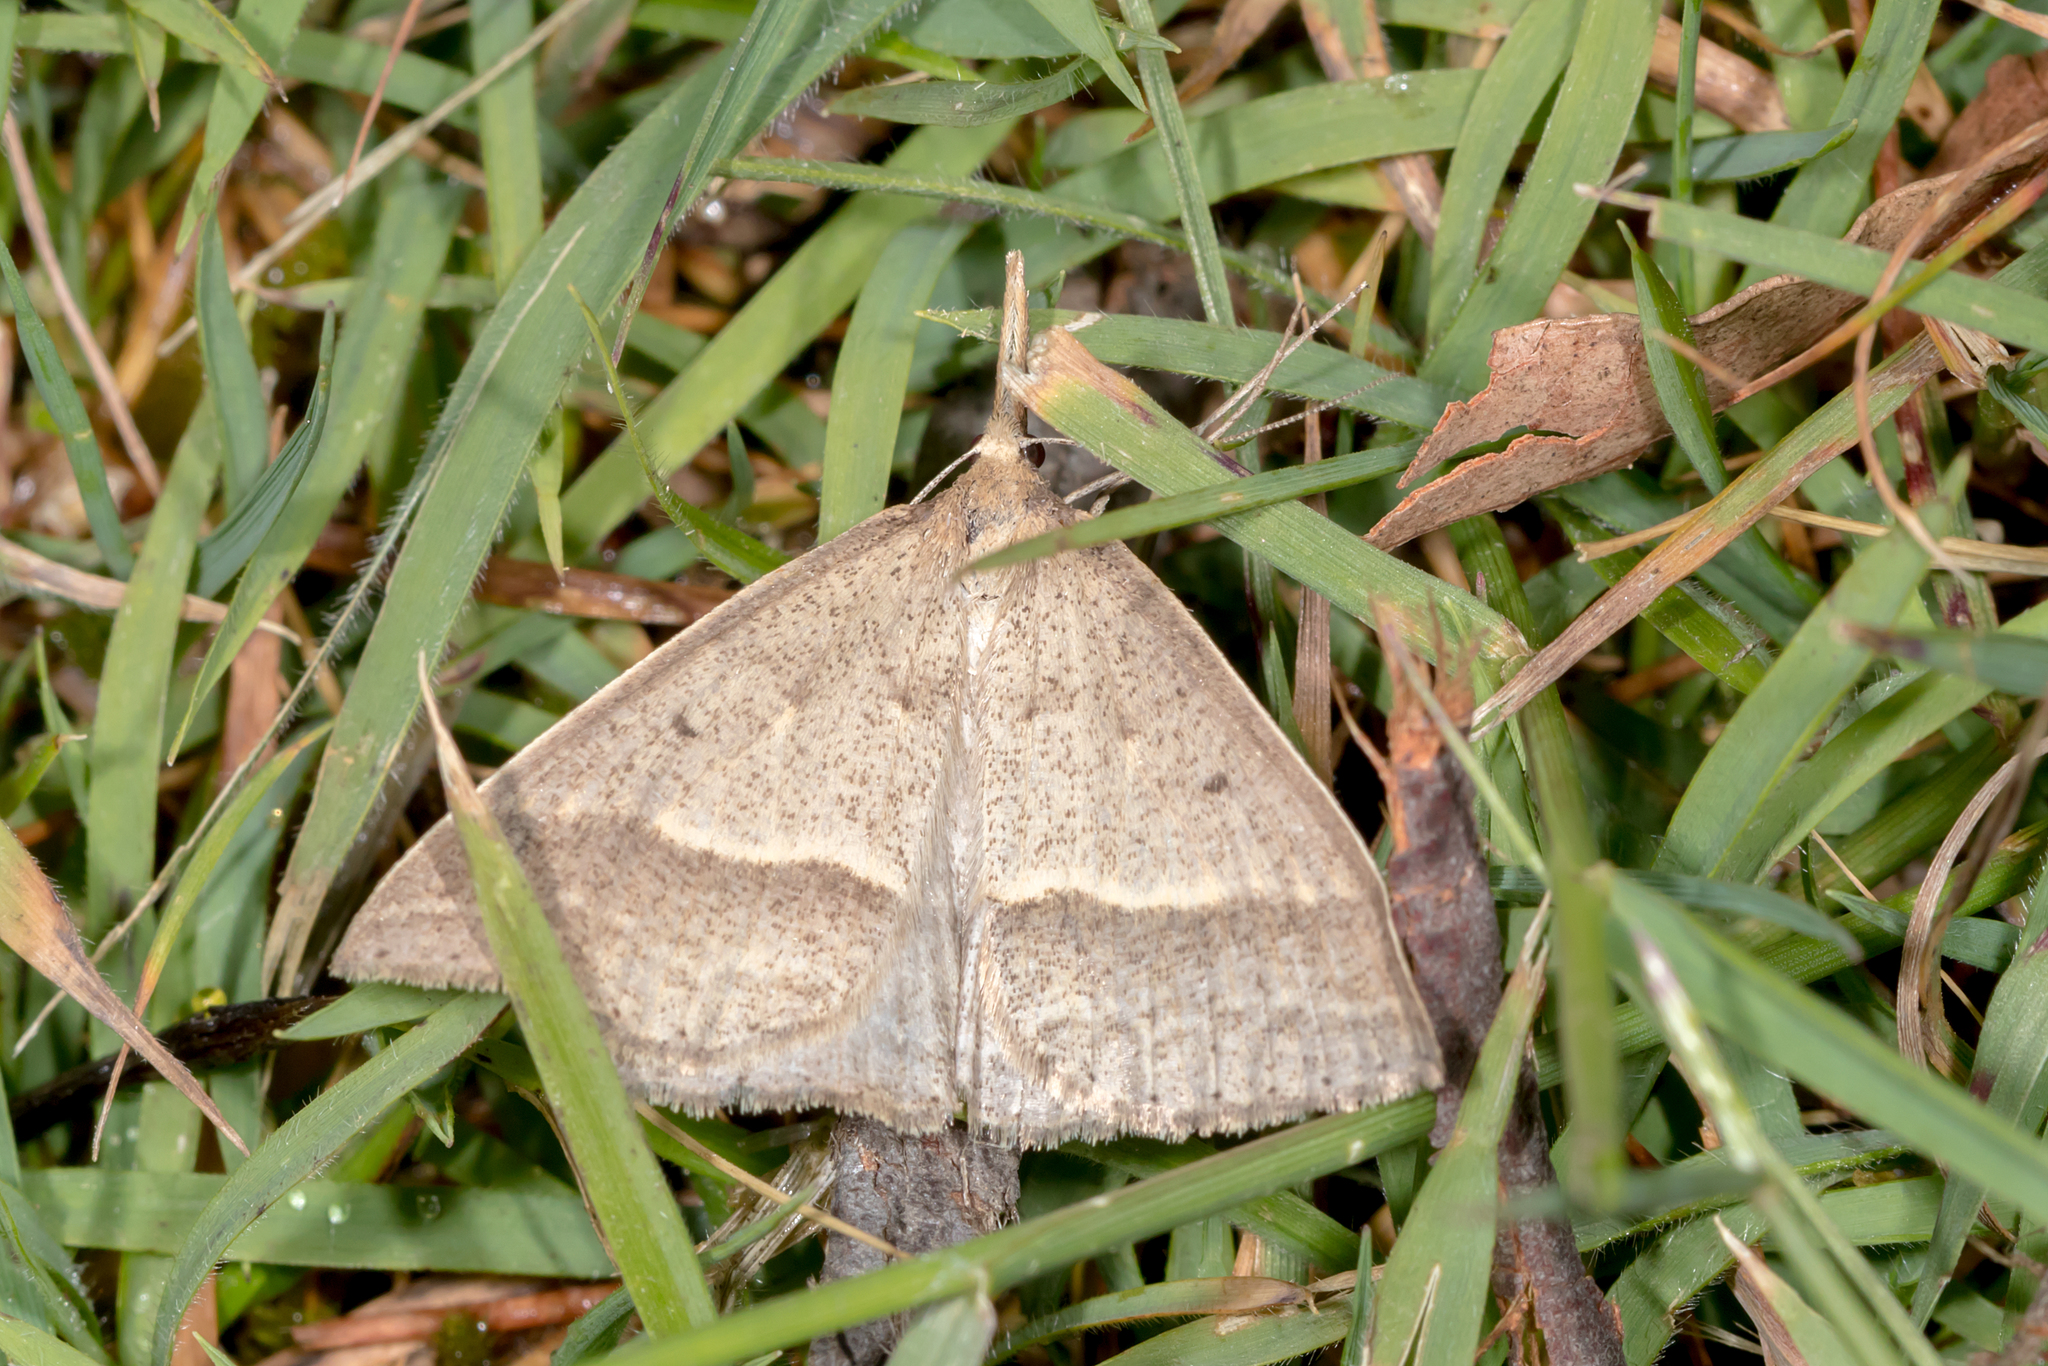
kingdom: Animalia
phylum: Arthropoda
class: Insecta
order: Lepidoptera
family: Geometridae
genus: Epidesmia
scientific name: Epidesmia hypenaria
